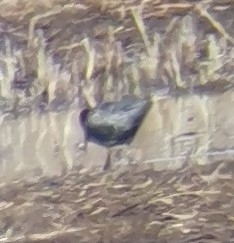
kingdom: Animalia
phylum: Chordata
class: Aves
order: Charadriiformes
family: Scolopacidae
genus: Tringa
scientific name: Tringa erythropus
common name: Spotted redshank
